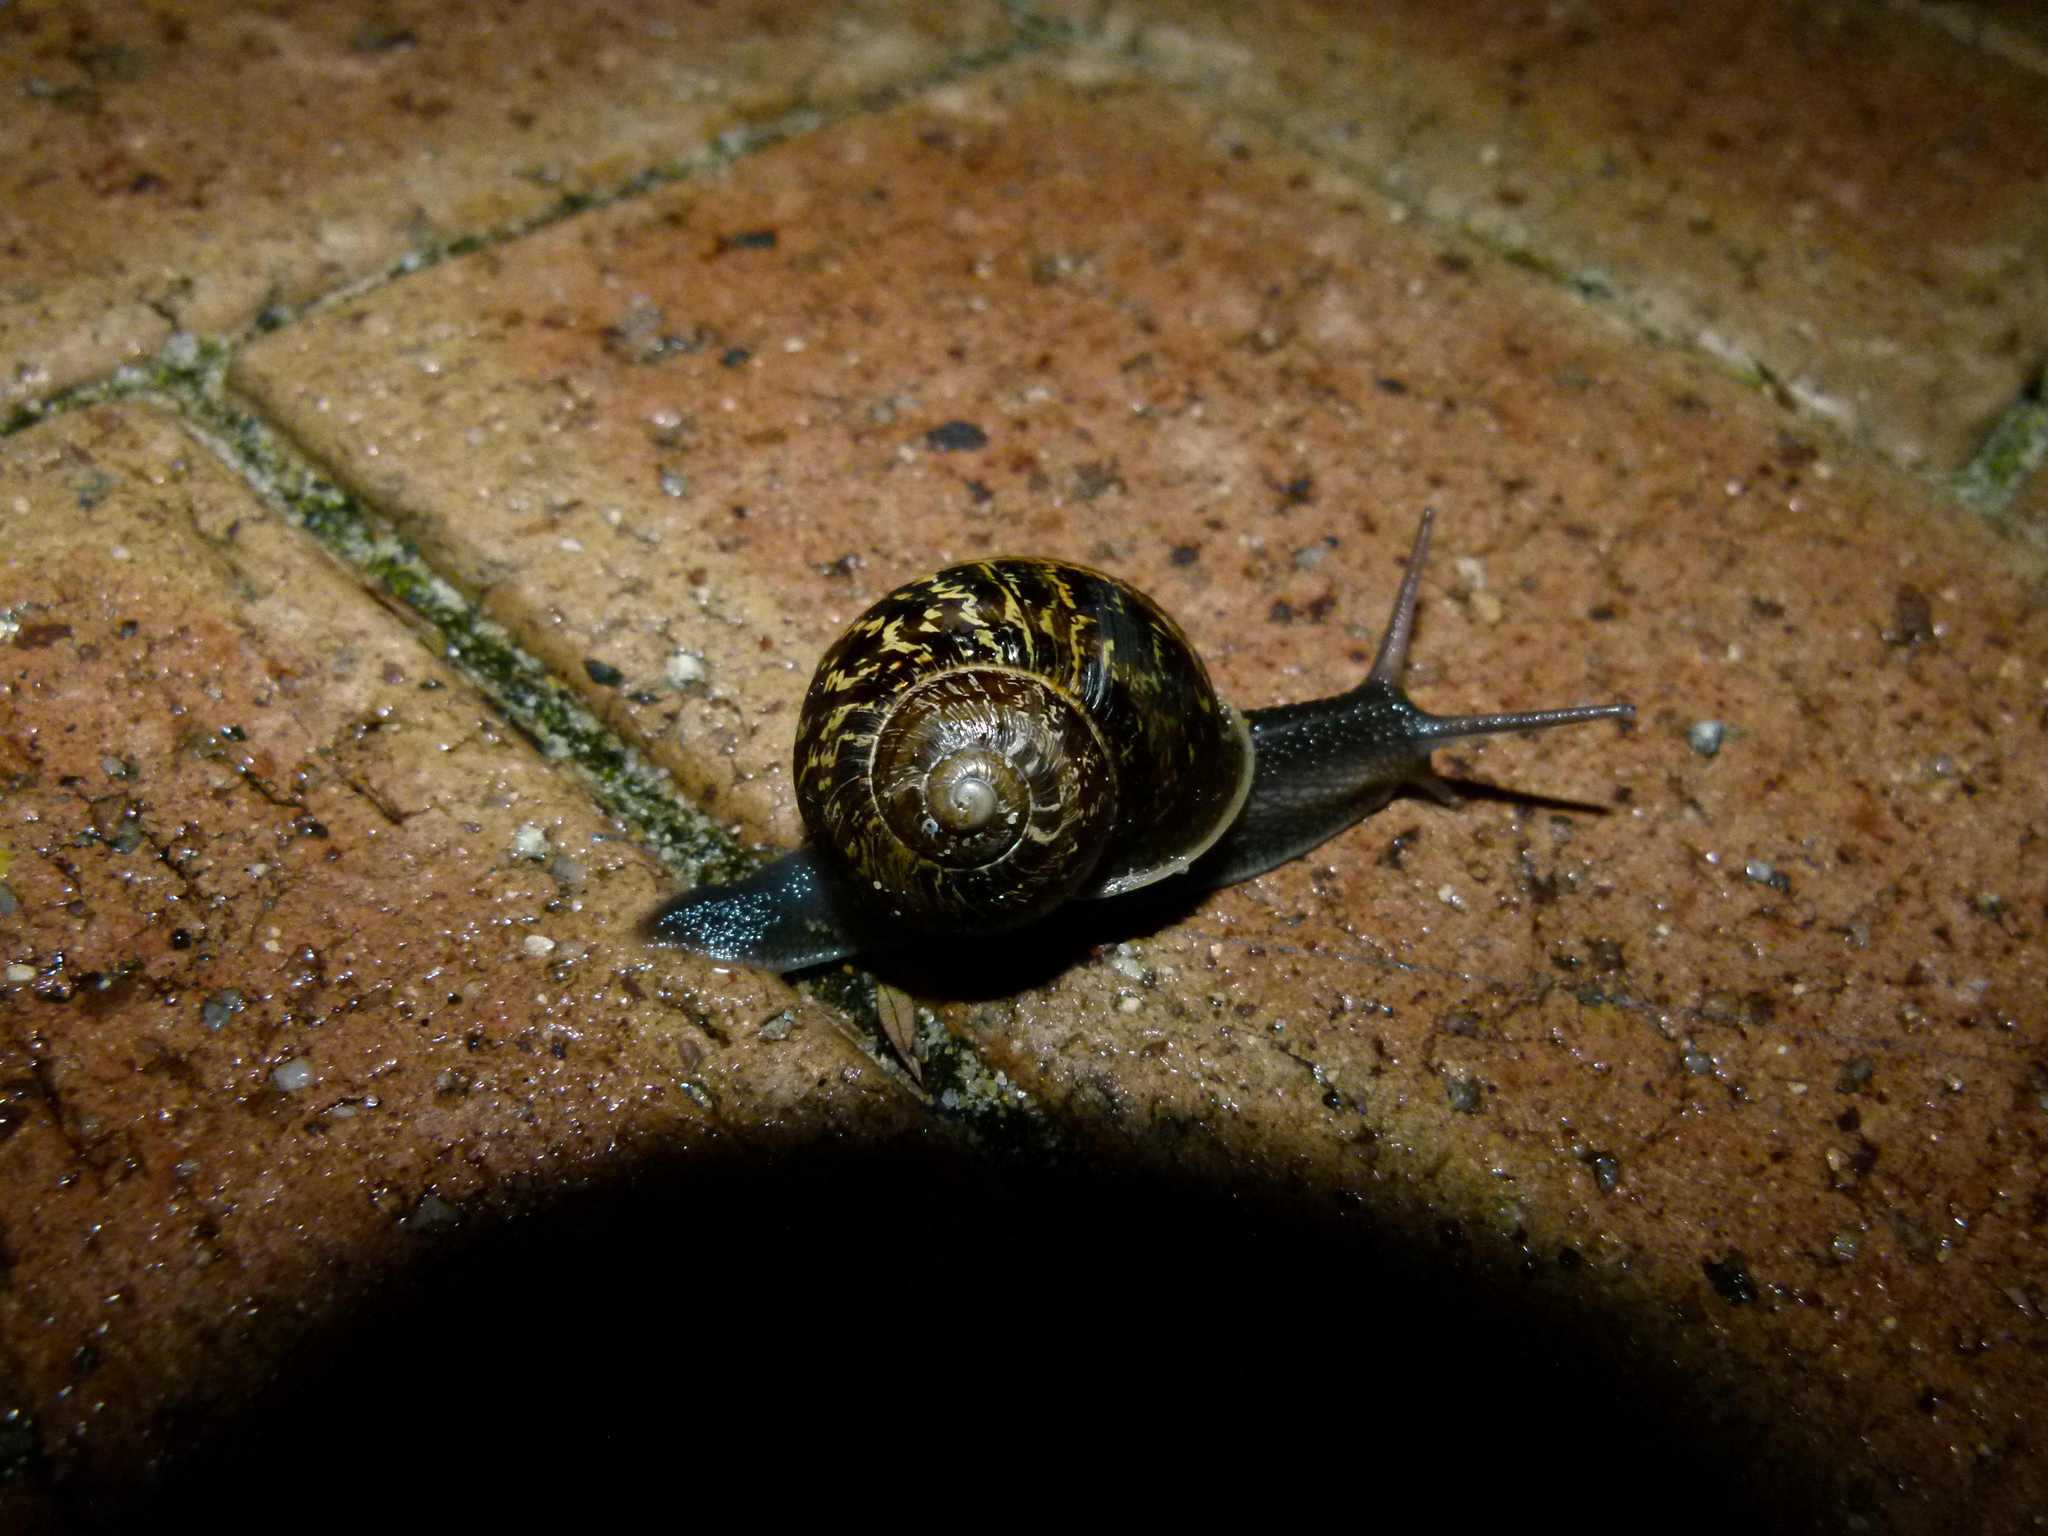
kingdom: Animalia
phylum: Mollusca
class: Gastropoda
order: Stylommatophora
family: Helicidae
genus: Cornu
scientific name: Cornu aspersum
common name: Brown garden snail
